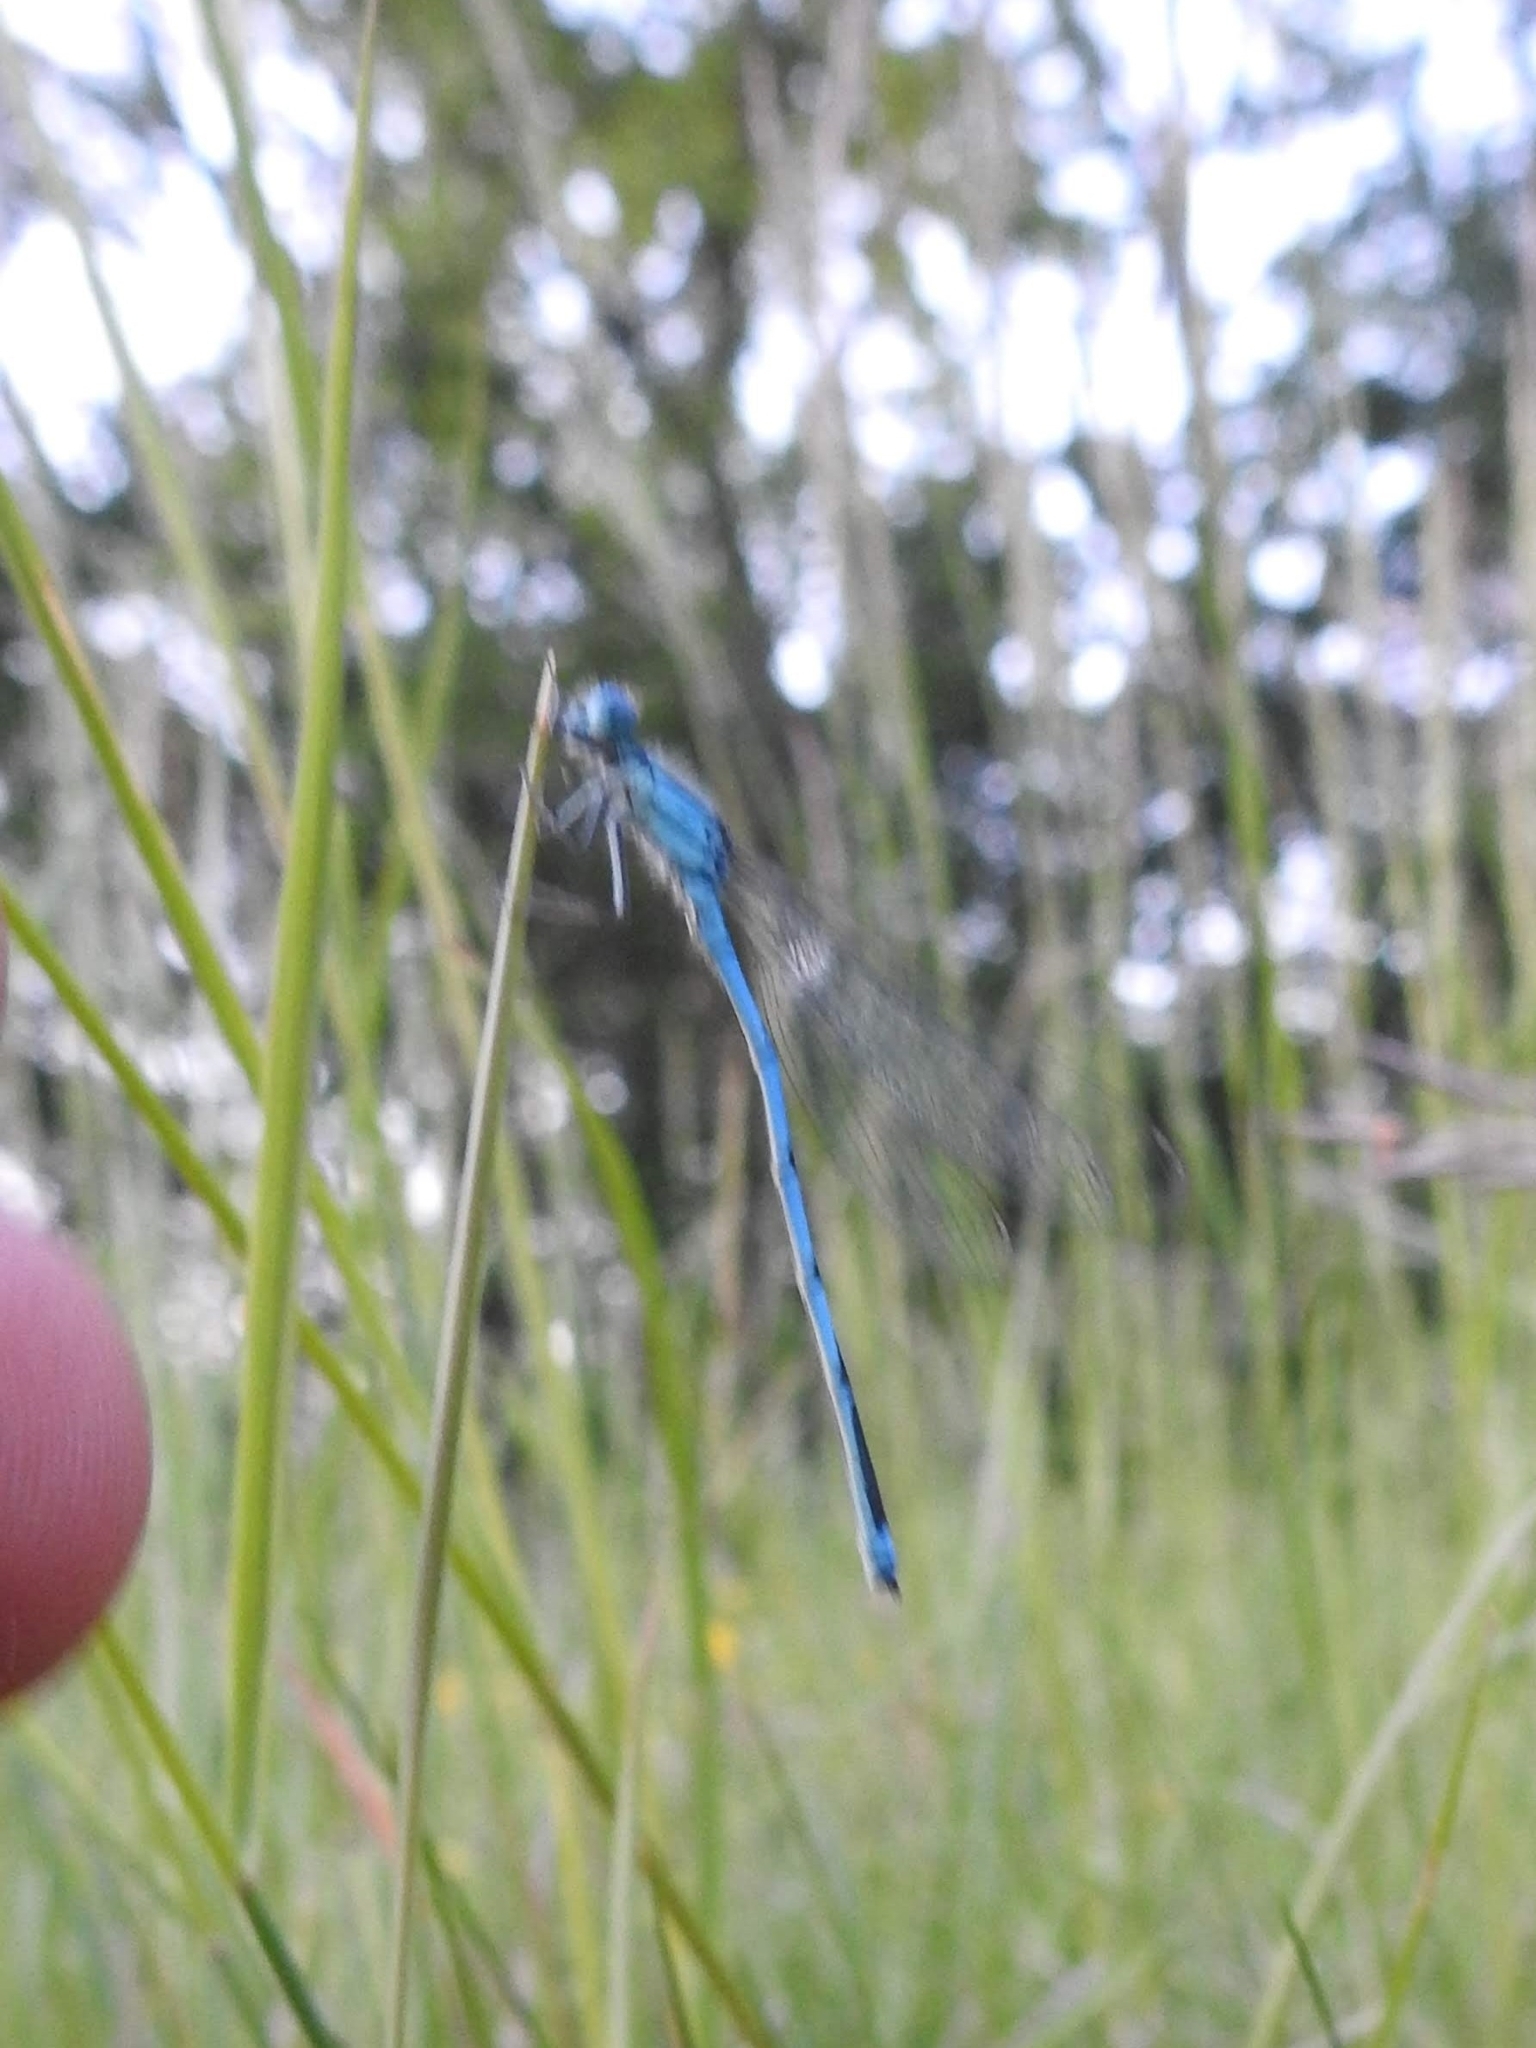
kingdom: Animalia
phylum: Arthropoda
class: Insecta
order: Odonata
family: Coenagrionidae
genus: Erythromma
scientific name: Erythromma lindenii
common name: Blue-eye
